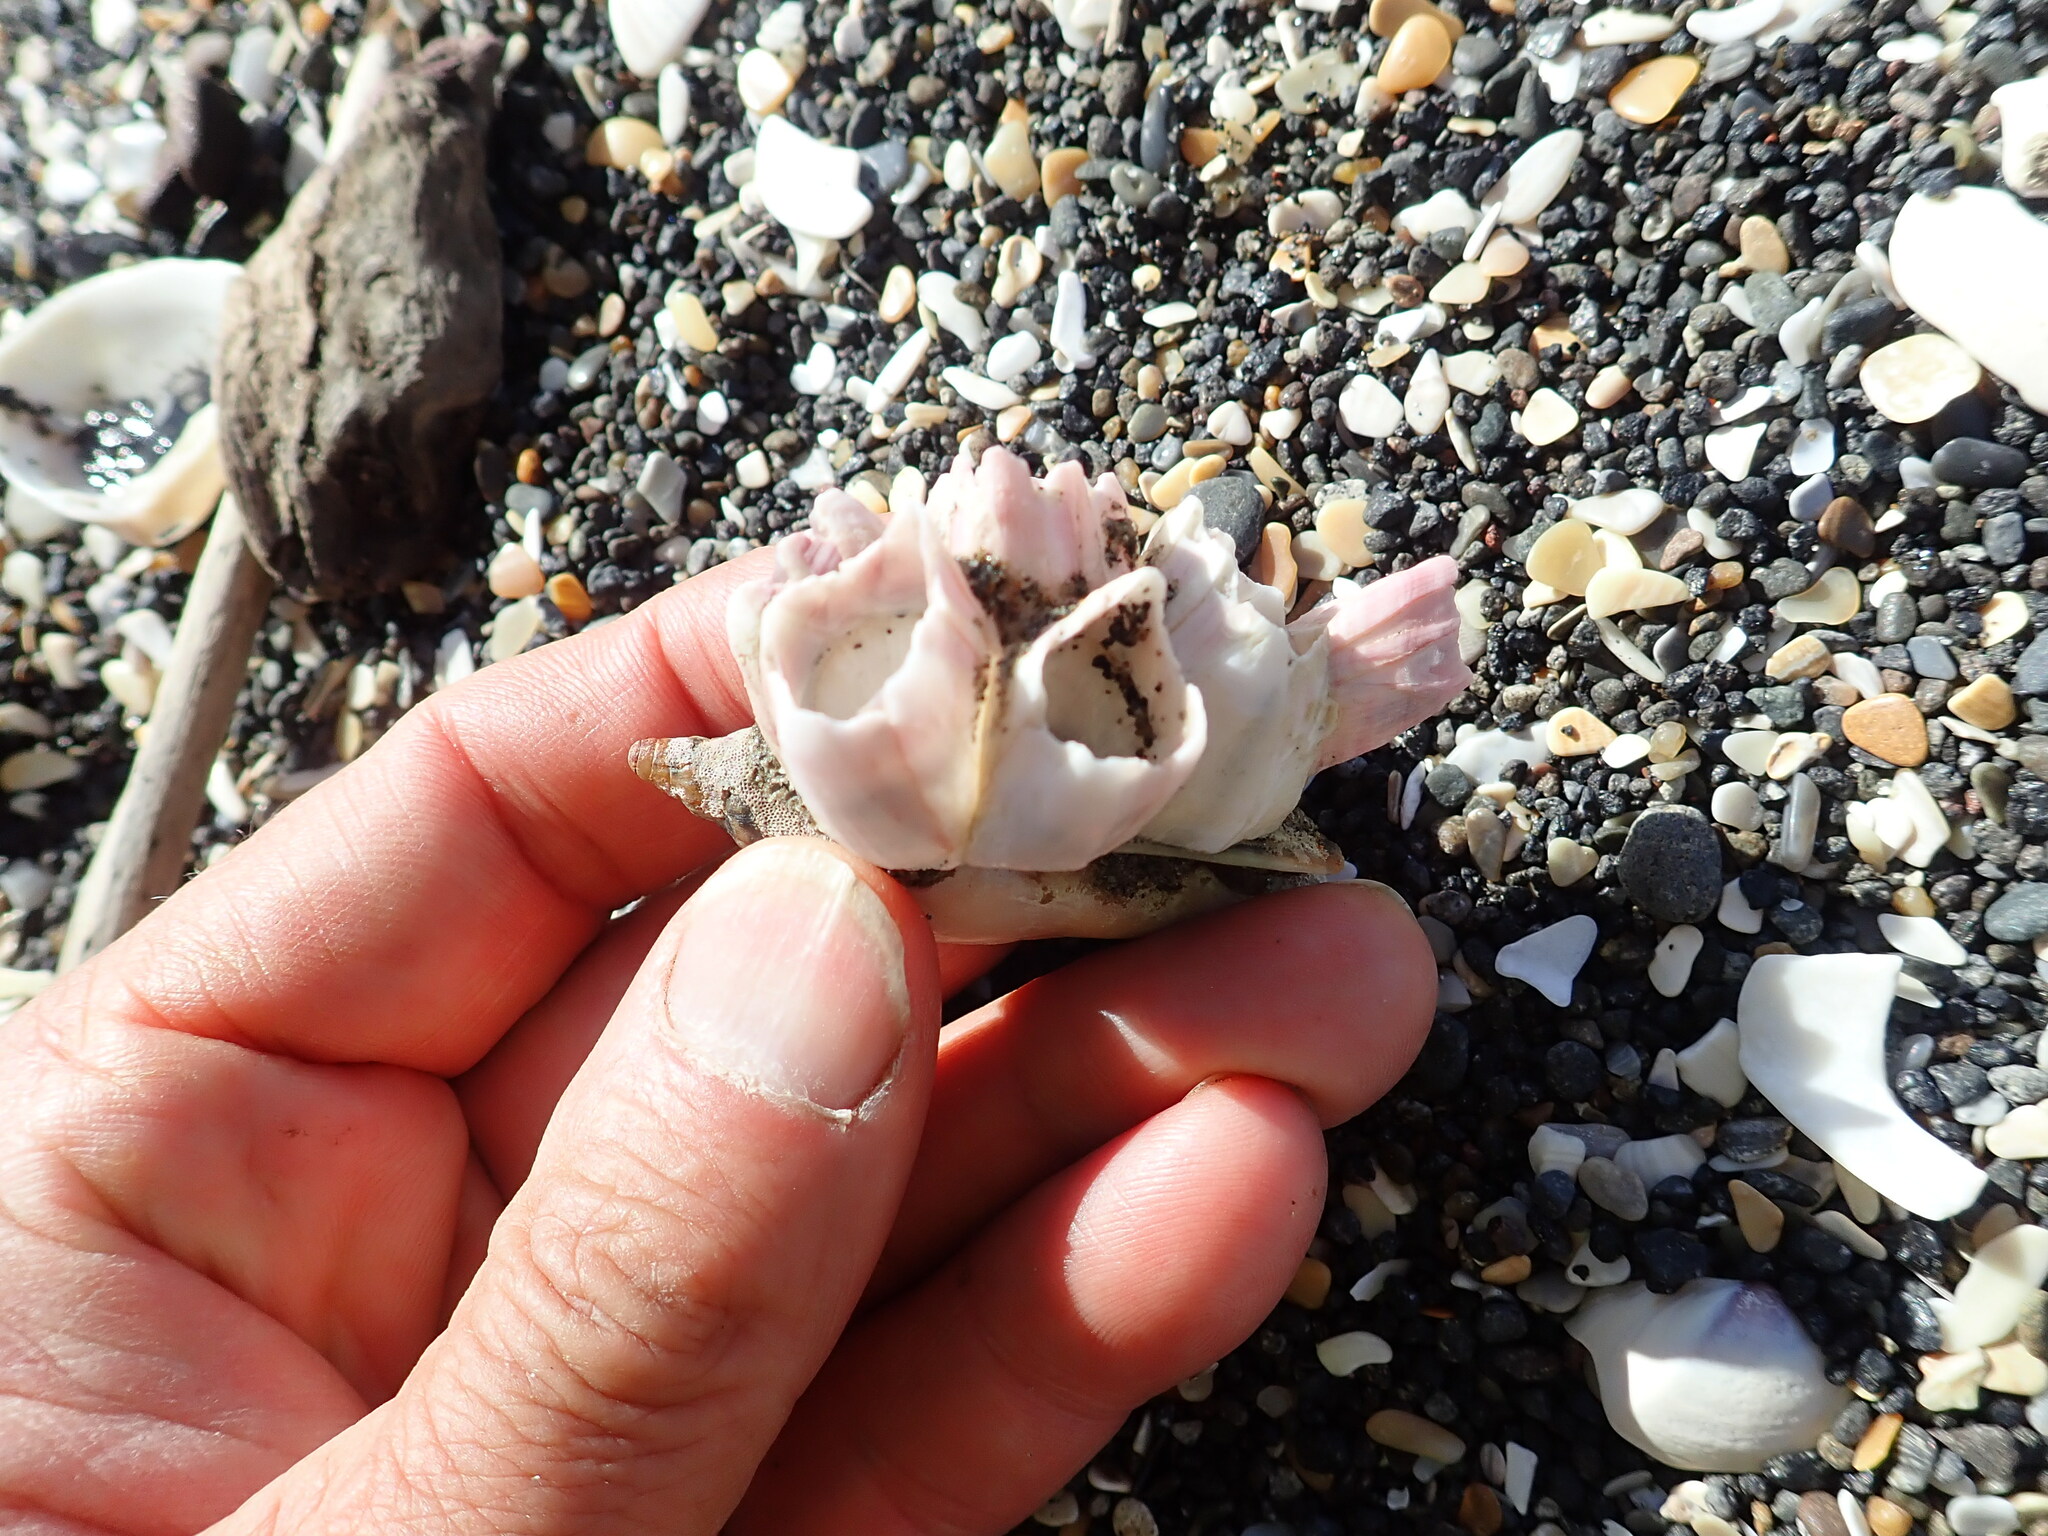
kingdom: Animalia
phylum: Arthropoda
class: Maxillopoda
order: Sessilia
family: Balanidae
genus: Notomegabalanus
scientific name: Notomegabalanus decorus
